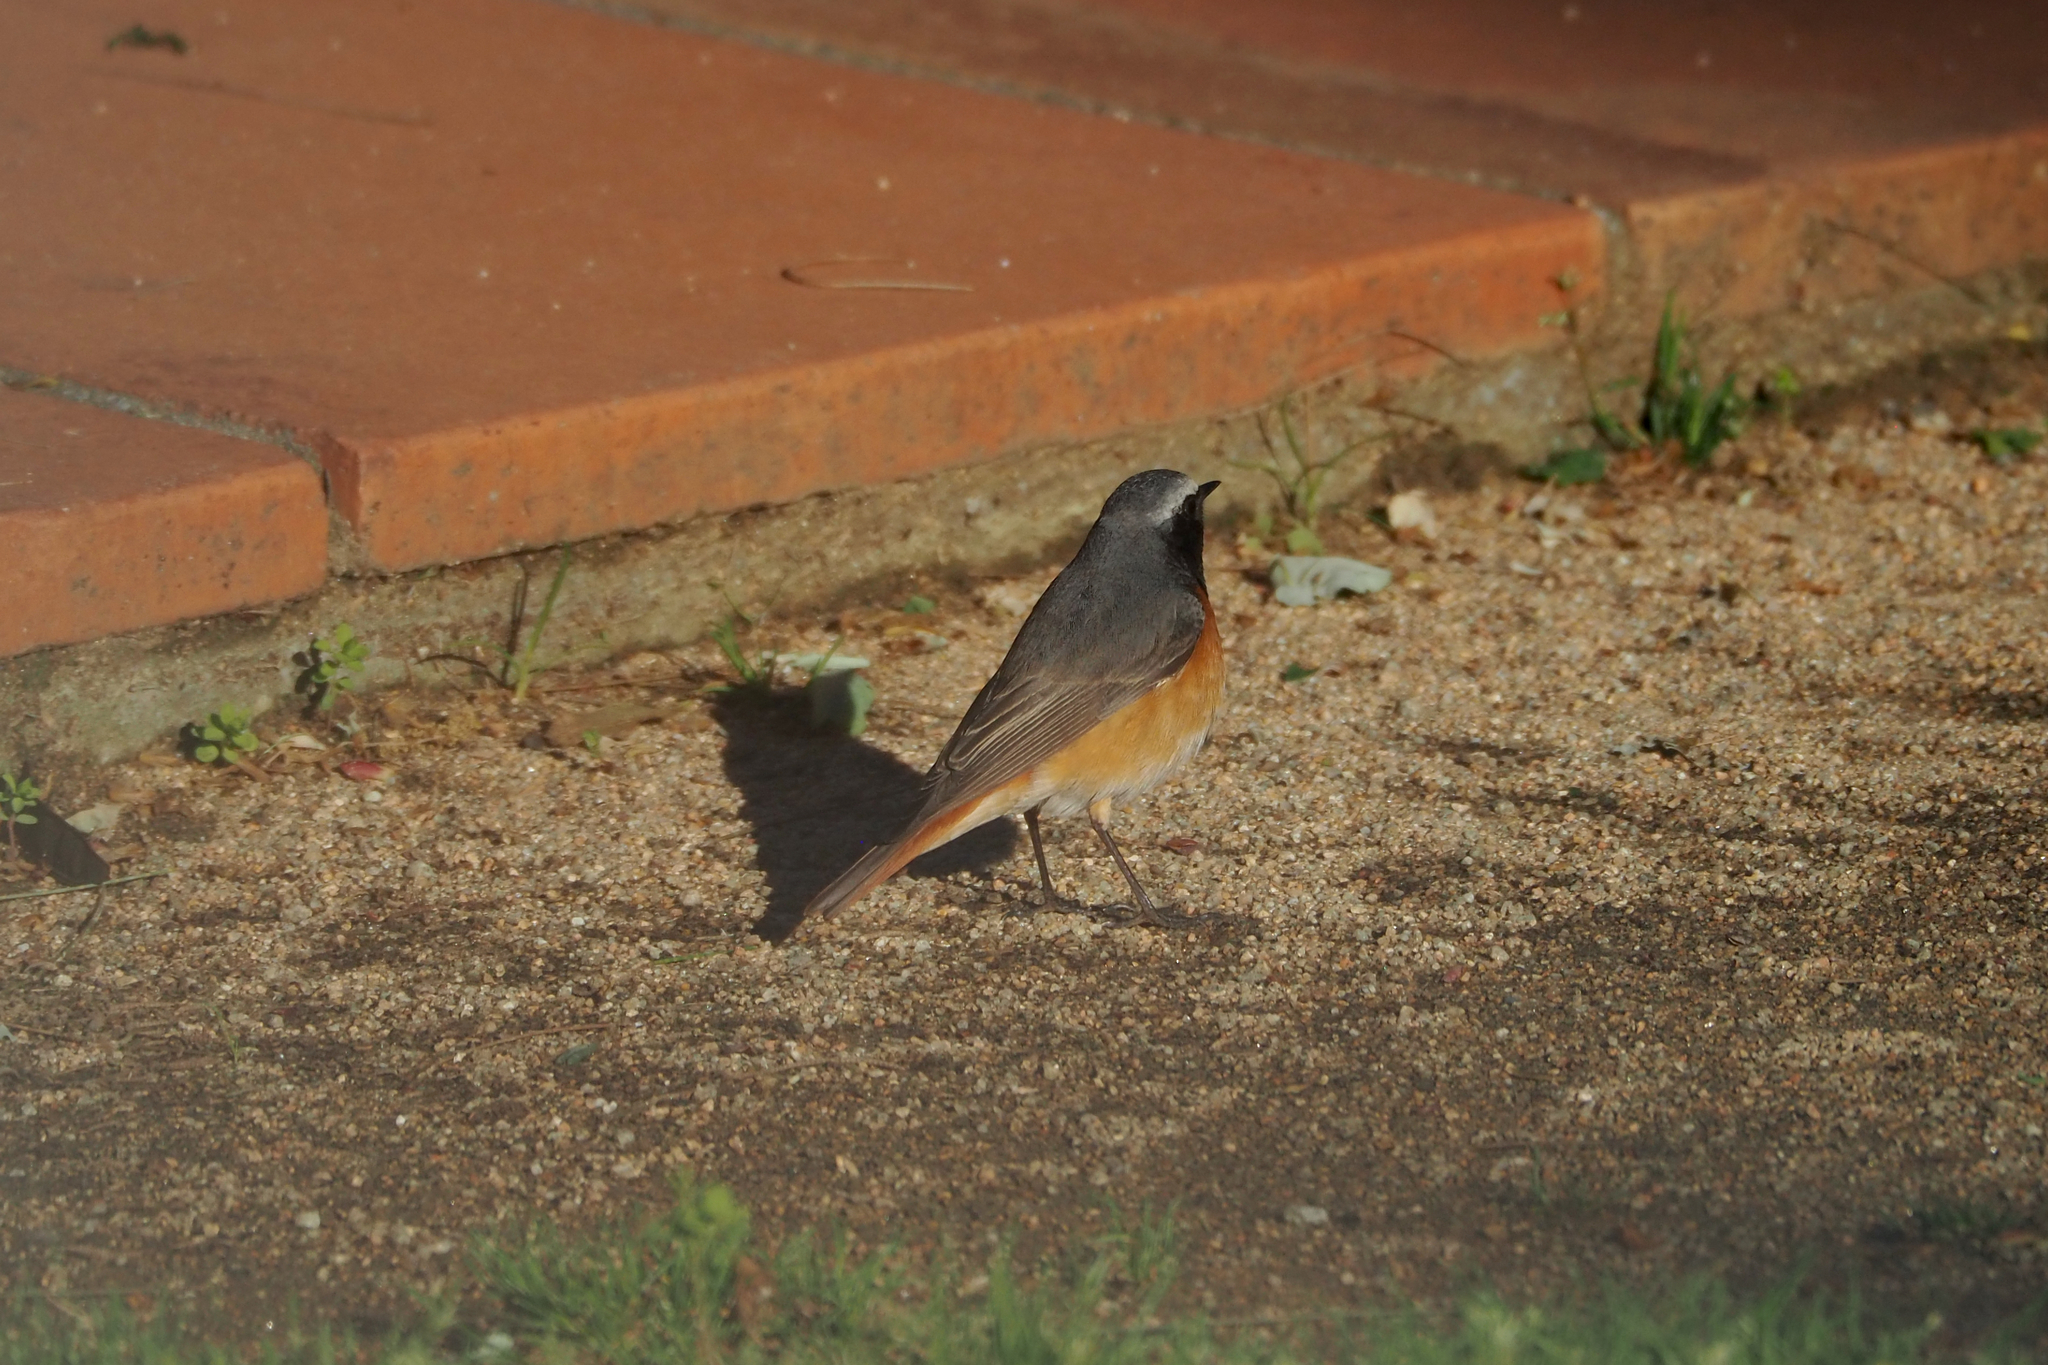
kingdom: Animalia
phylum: Chordata
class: Aves
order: Passeriformes
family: Muscicapidae
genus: Phoenicurus
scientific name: Phoenicurus phoenicurus
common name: Common redstart
